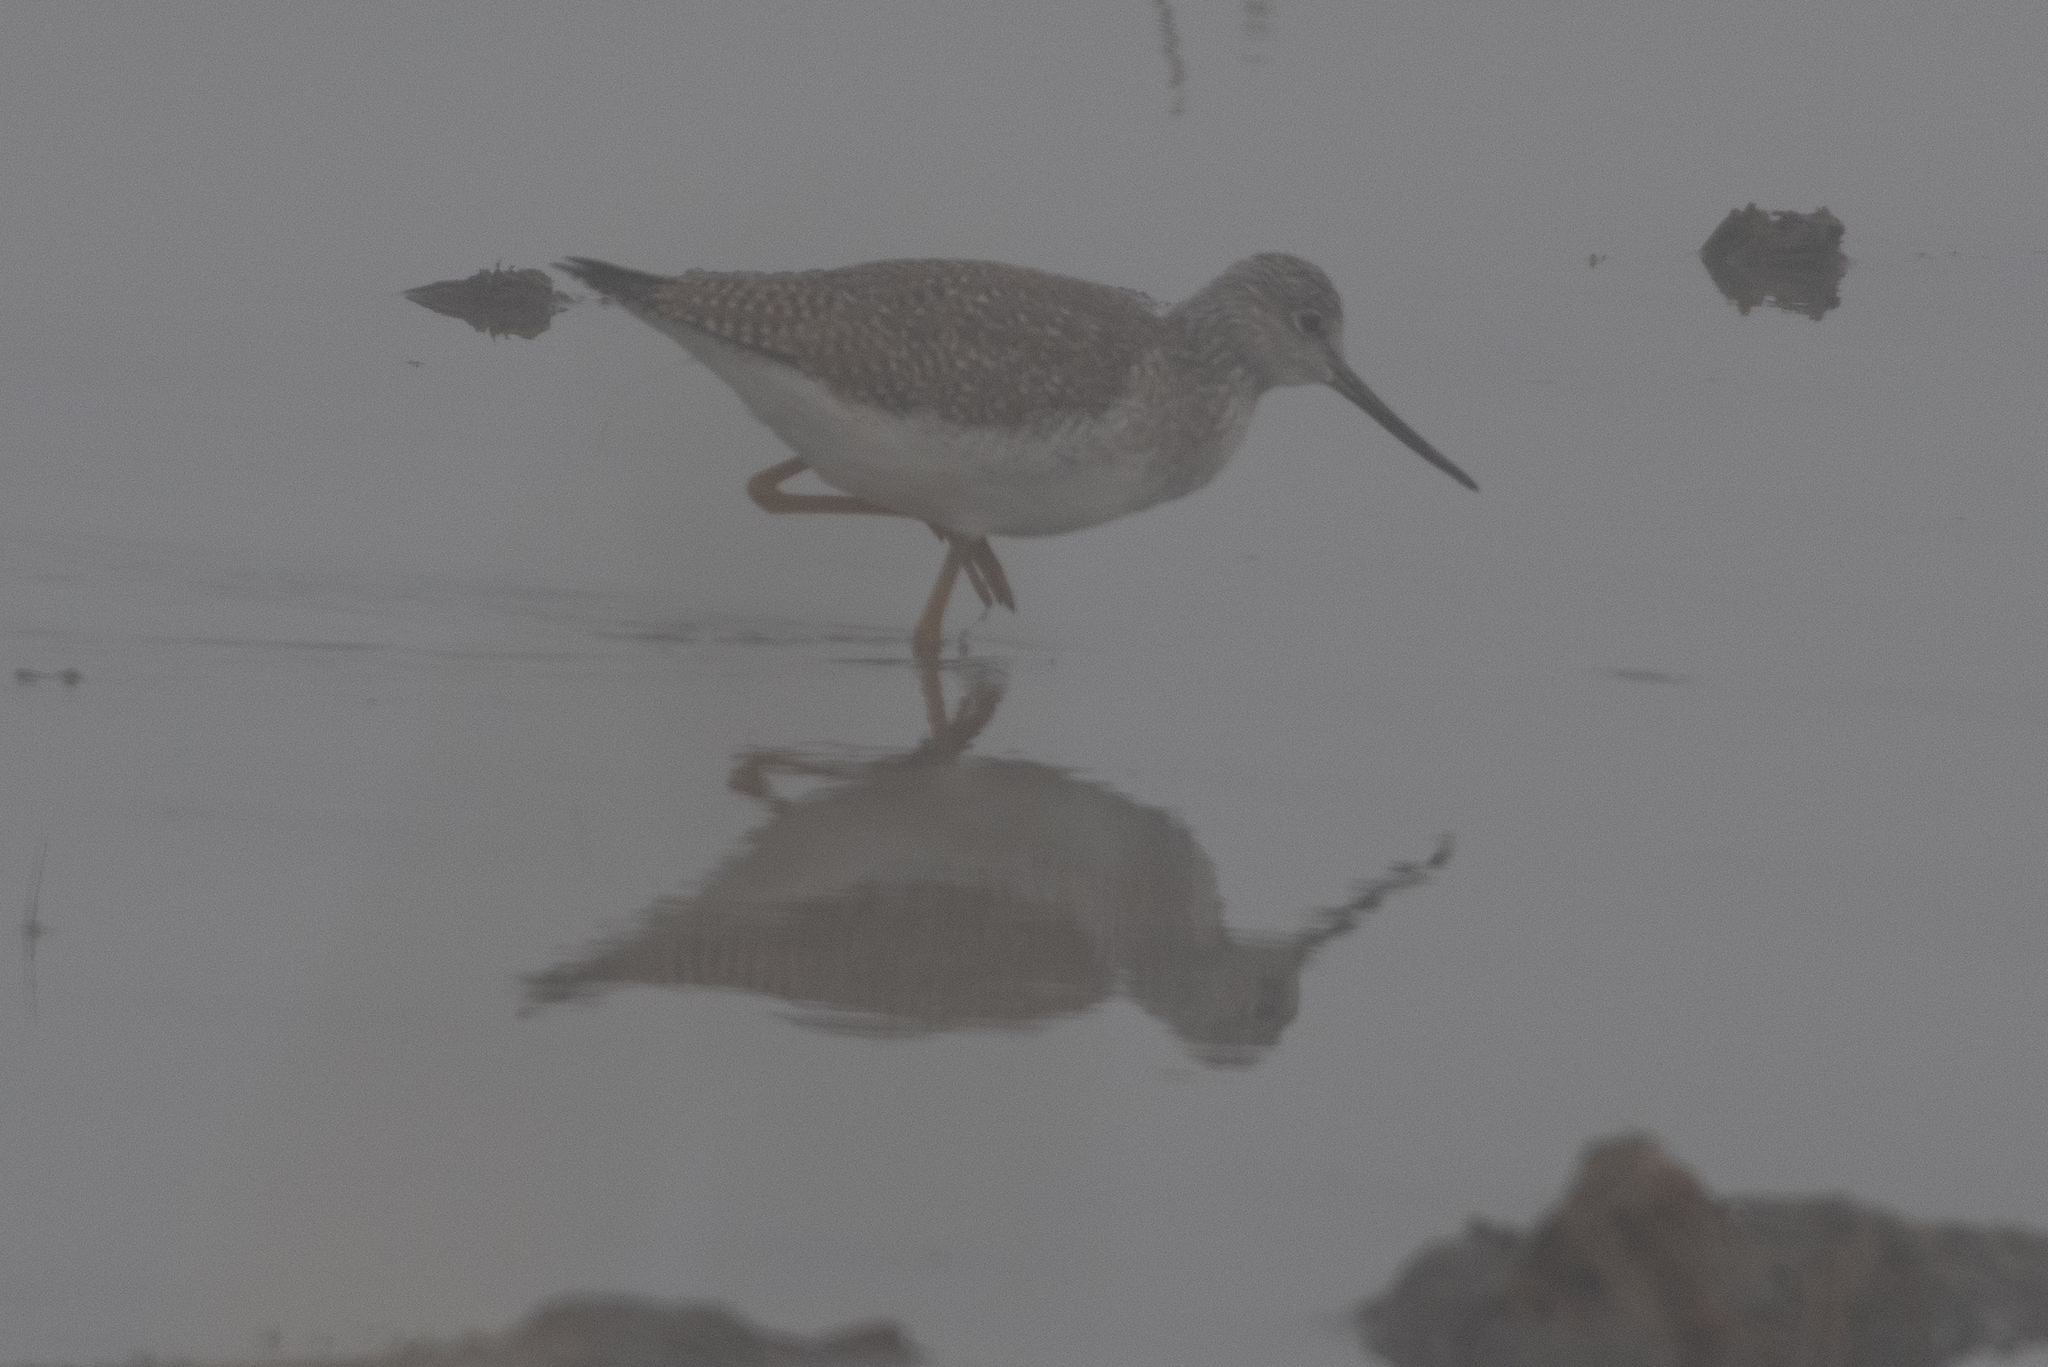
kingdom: Animalia
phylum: Chordata
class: Aves
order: Charadriiformes
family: Scolopacidae
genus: Tringa
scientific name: Tringa melanoleuca
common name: Greater yellowlegs
